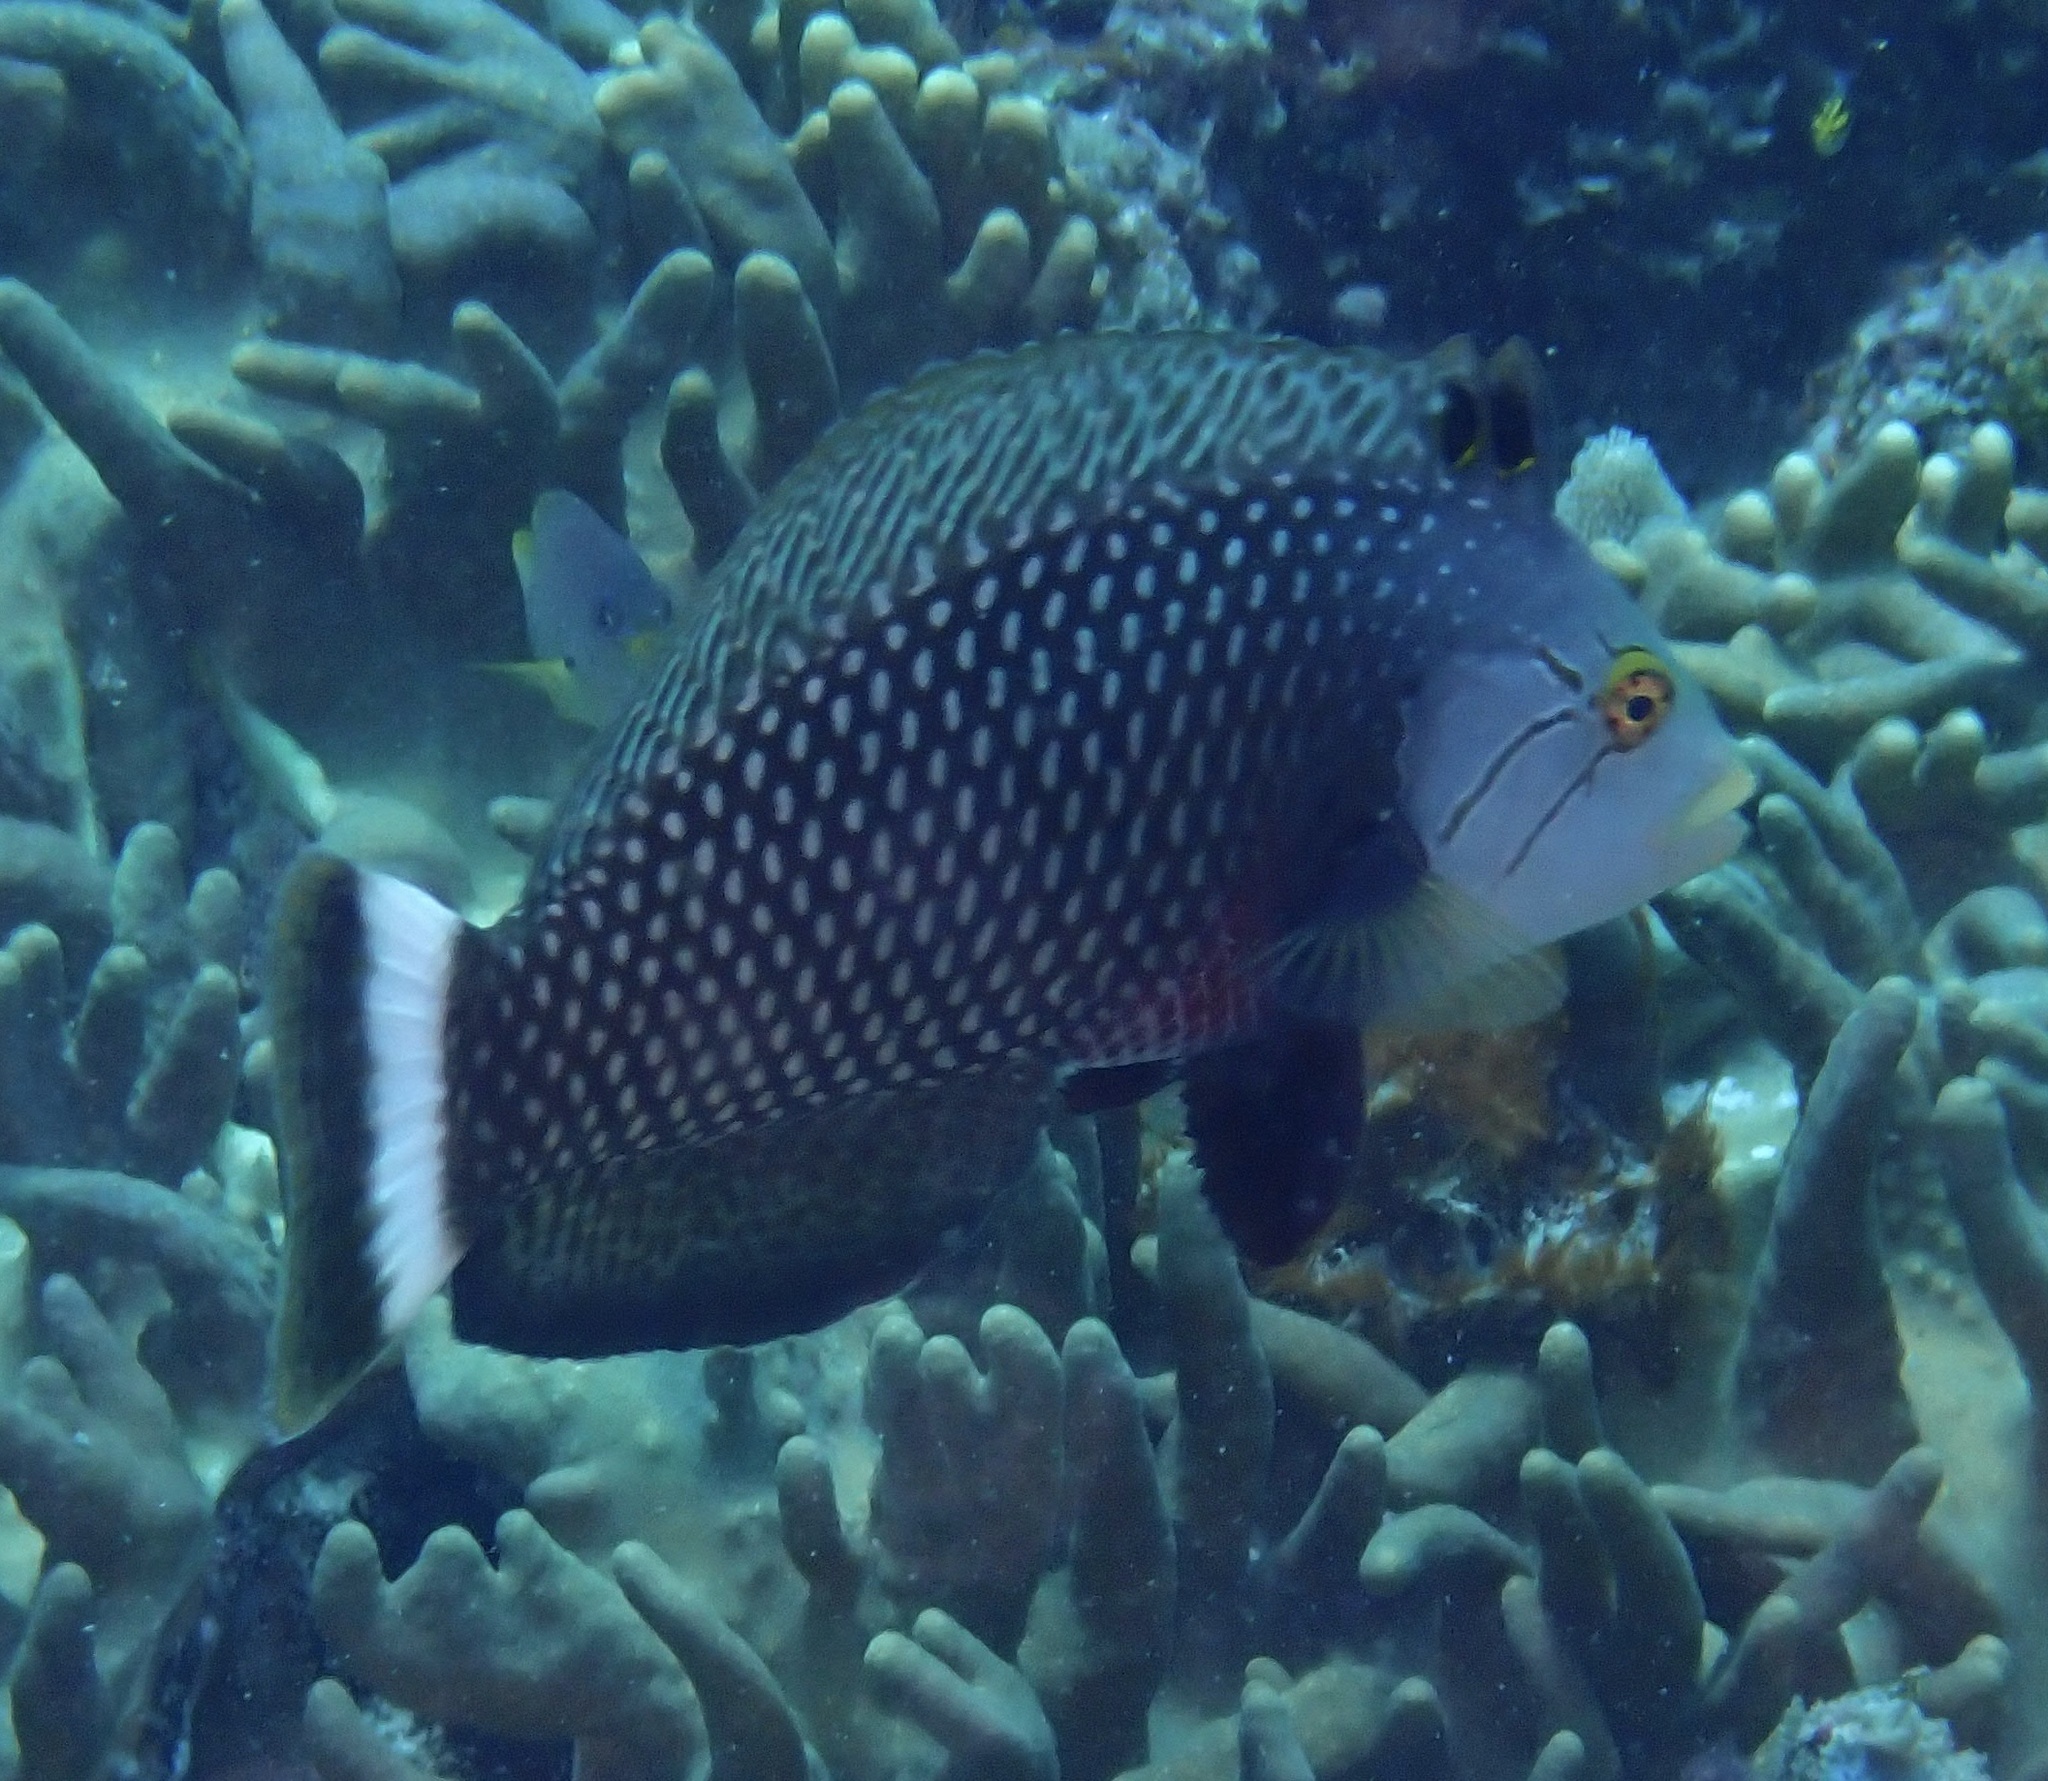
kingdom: Animalia
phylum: Chordata
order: Perciformes
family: Labridae
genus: Novaculichthys
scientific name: Novaculichthys taeniourus
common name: Rockmover wrasse
